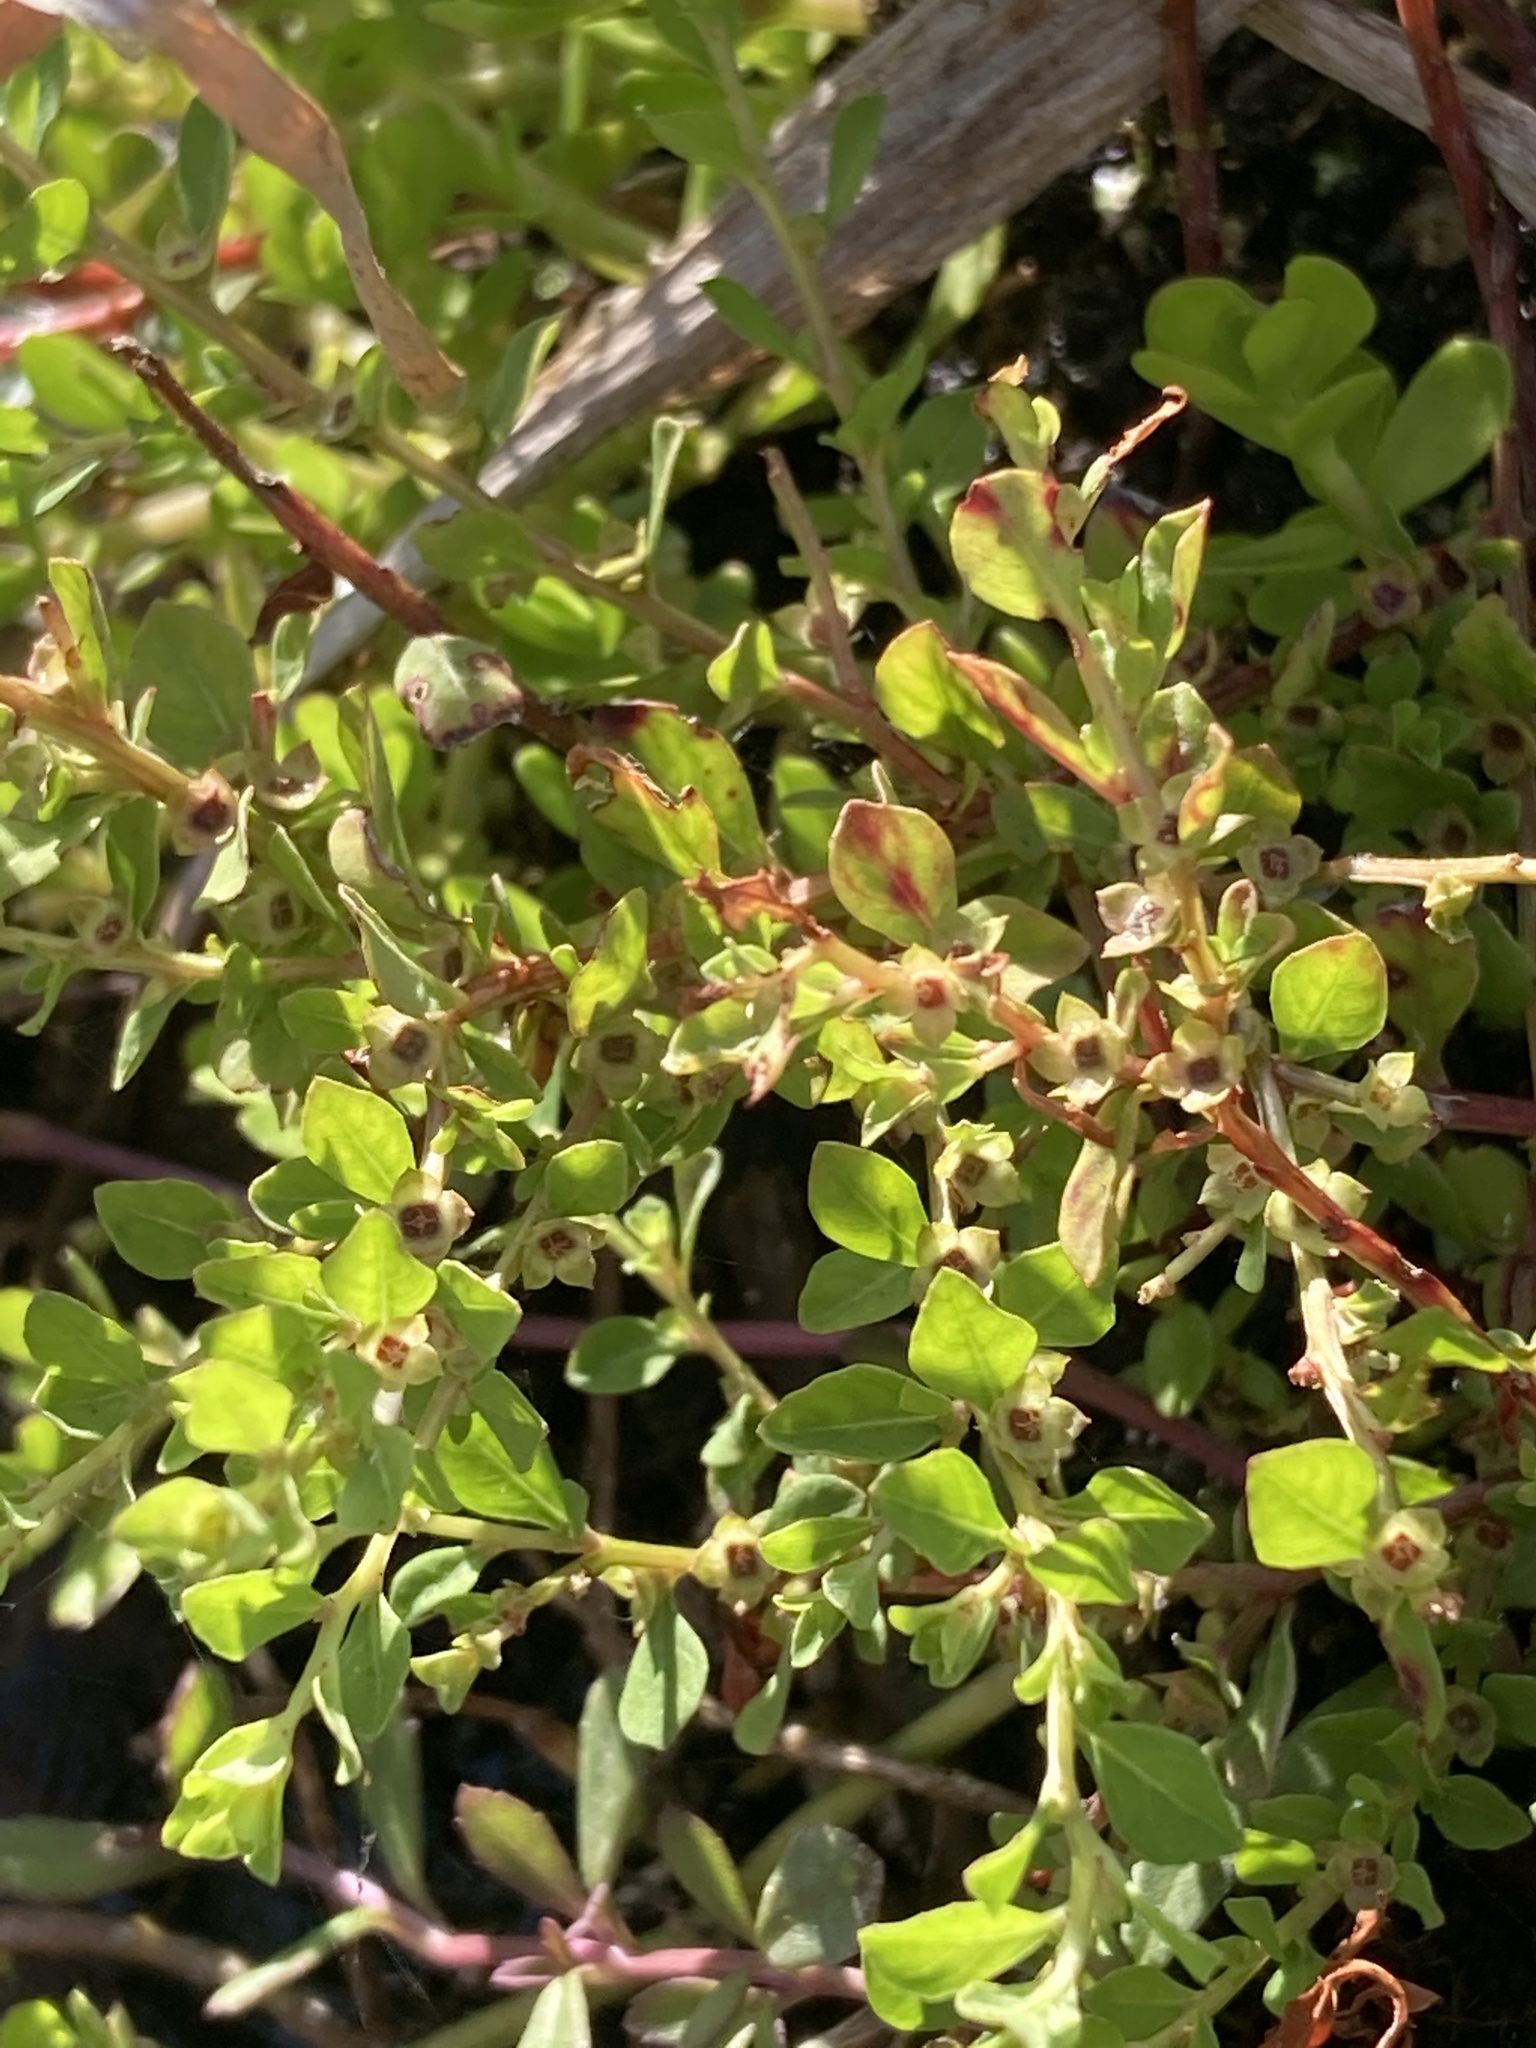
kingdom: Plantae
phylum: Tracheophyta
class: Magnoliopsida
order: Myrtales
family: Onagraceae
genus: Ludwigia
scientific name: Ludwigia microcarpa
